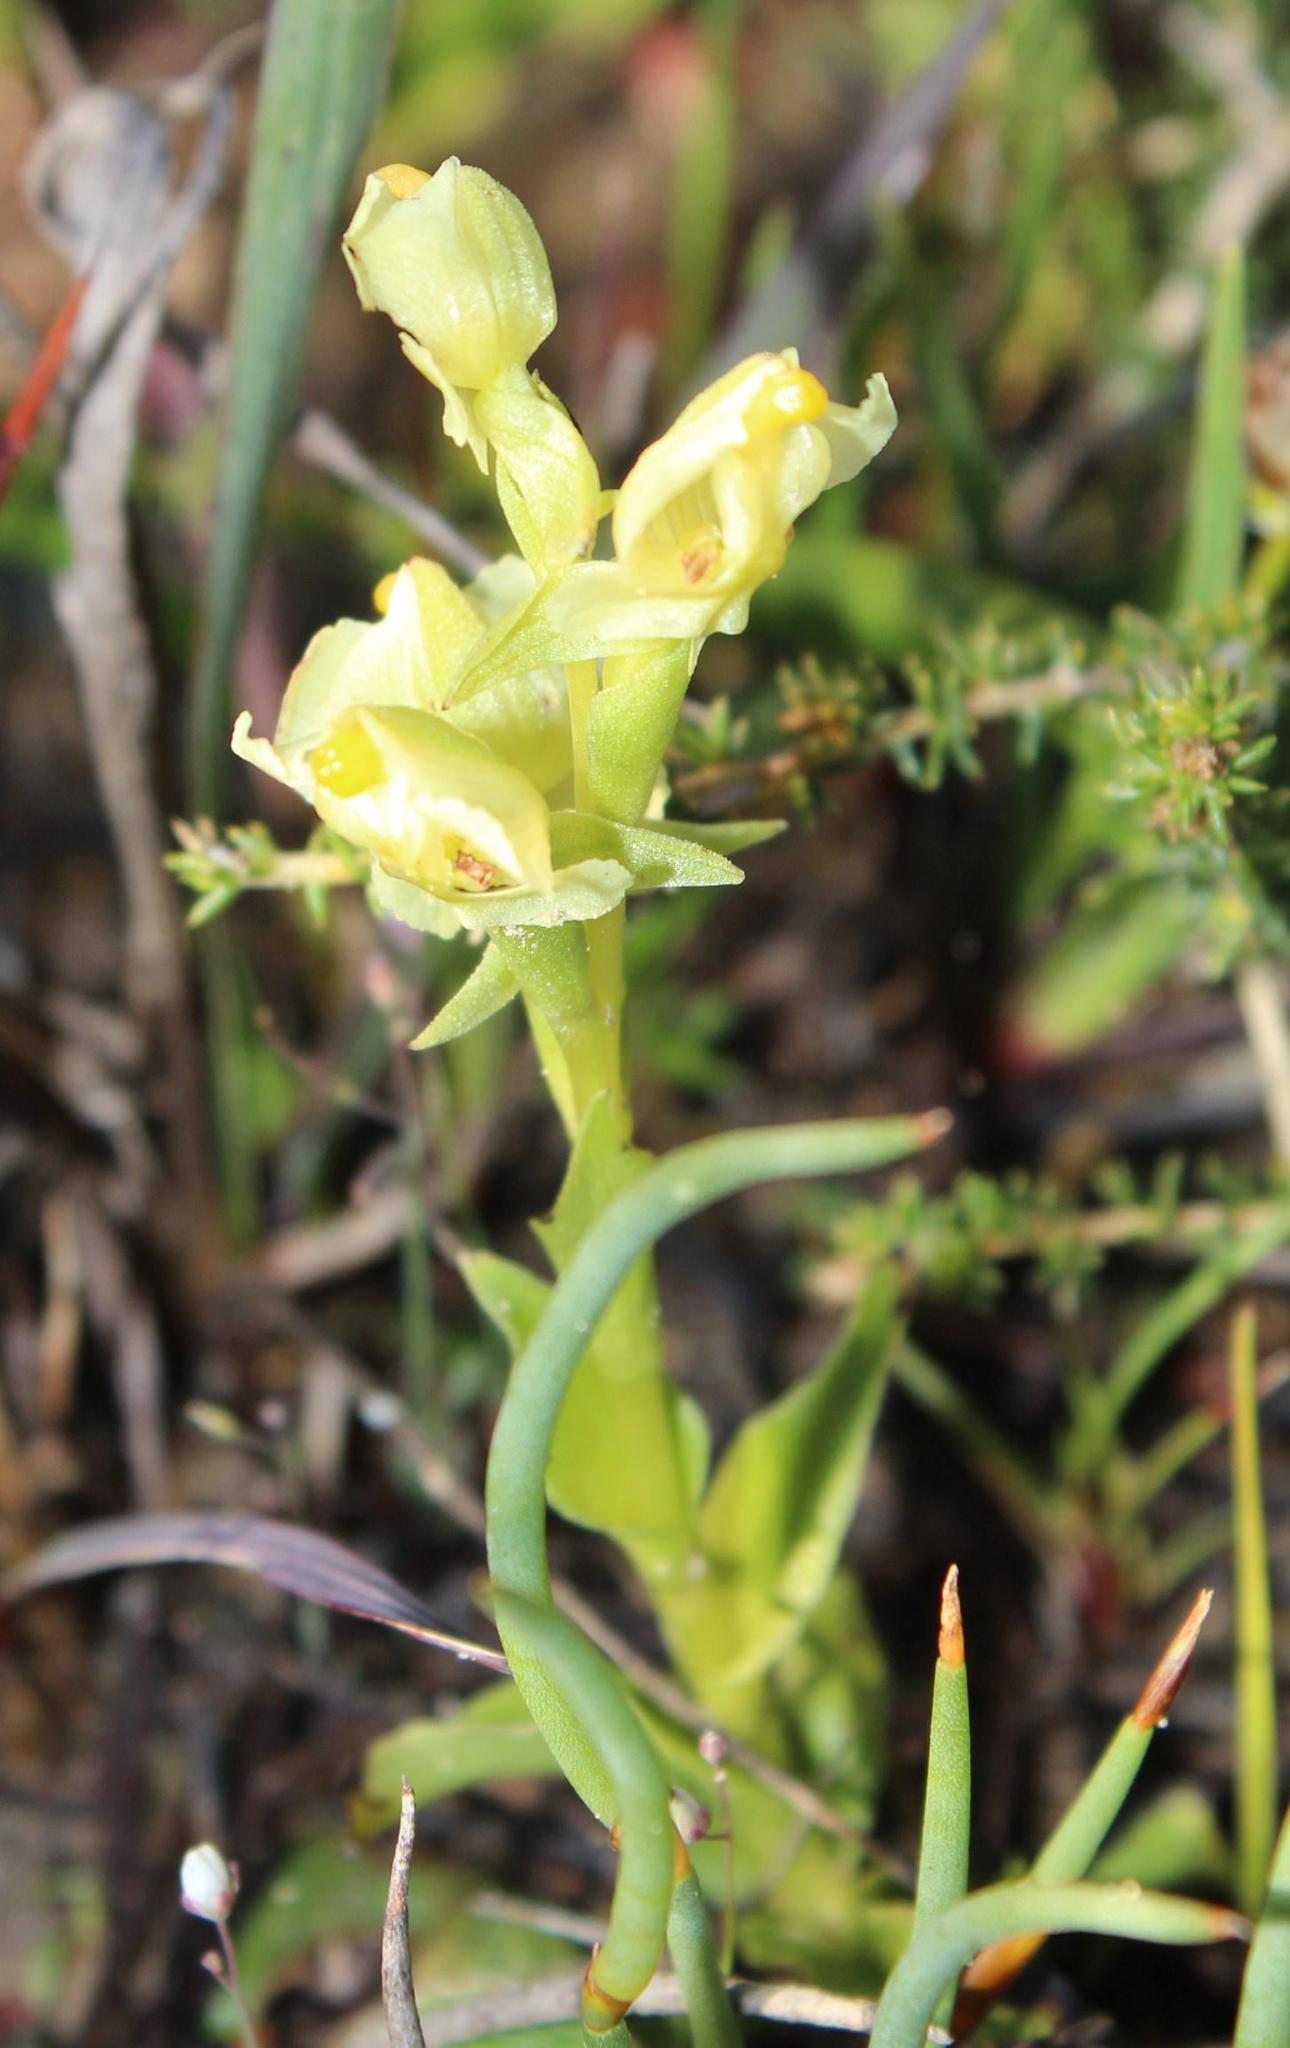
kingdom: Plantae
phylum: Tracheophyta
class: Liliopsida
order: Asparagales
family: Orchidaceae
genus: Pterygodium
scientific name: Pterygodium alatum
